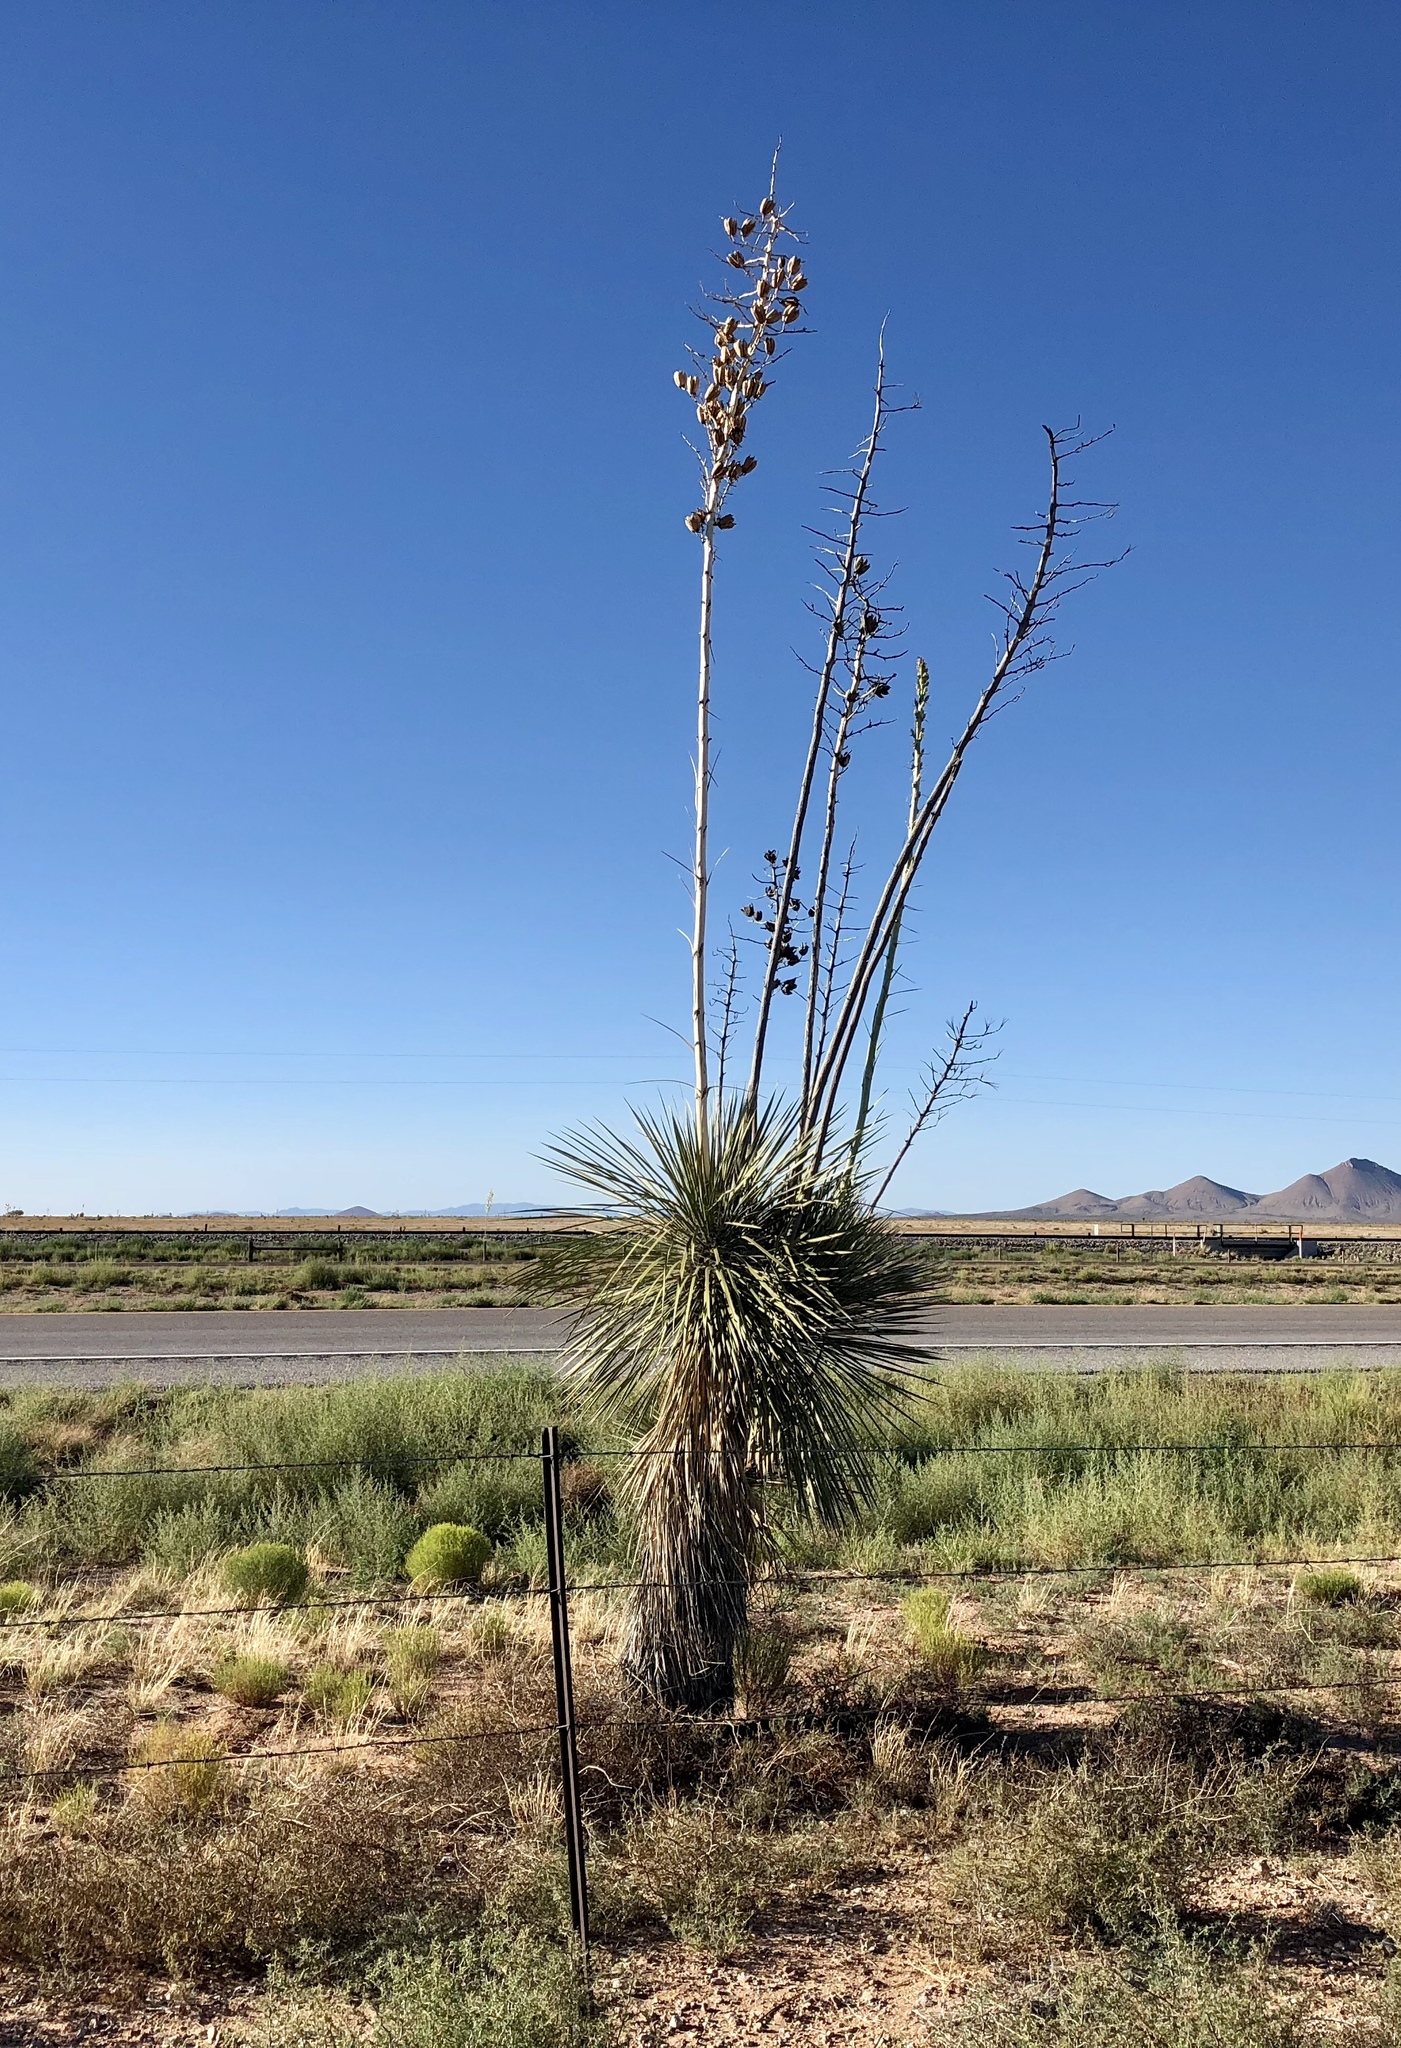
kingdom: Plantae
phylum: Tracheophyta
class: Liliopsida
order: Asparagales
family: Asparagaceae
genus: Yucca
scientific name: Yucca elata
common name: Palmella
